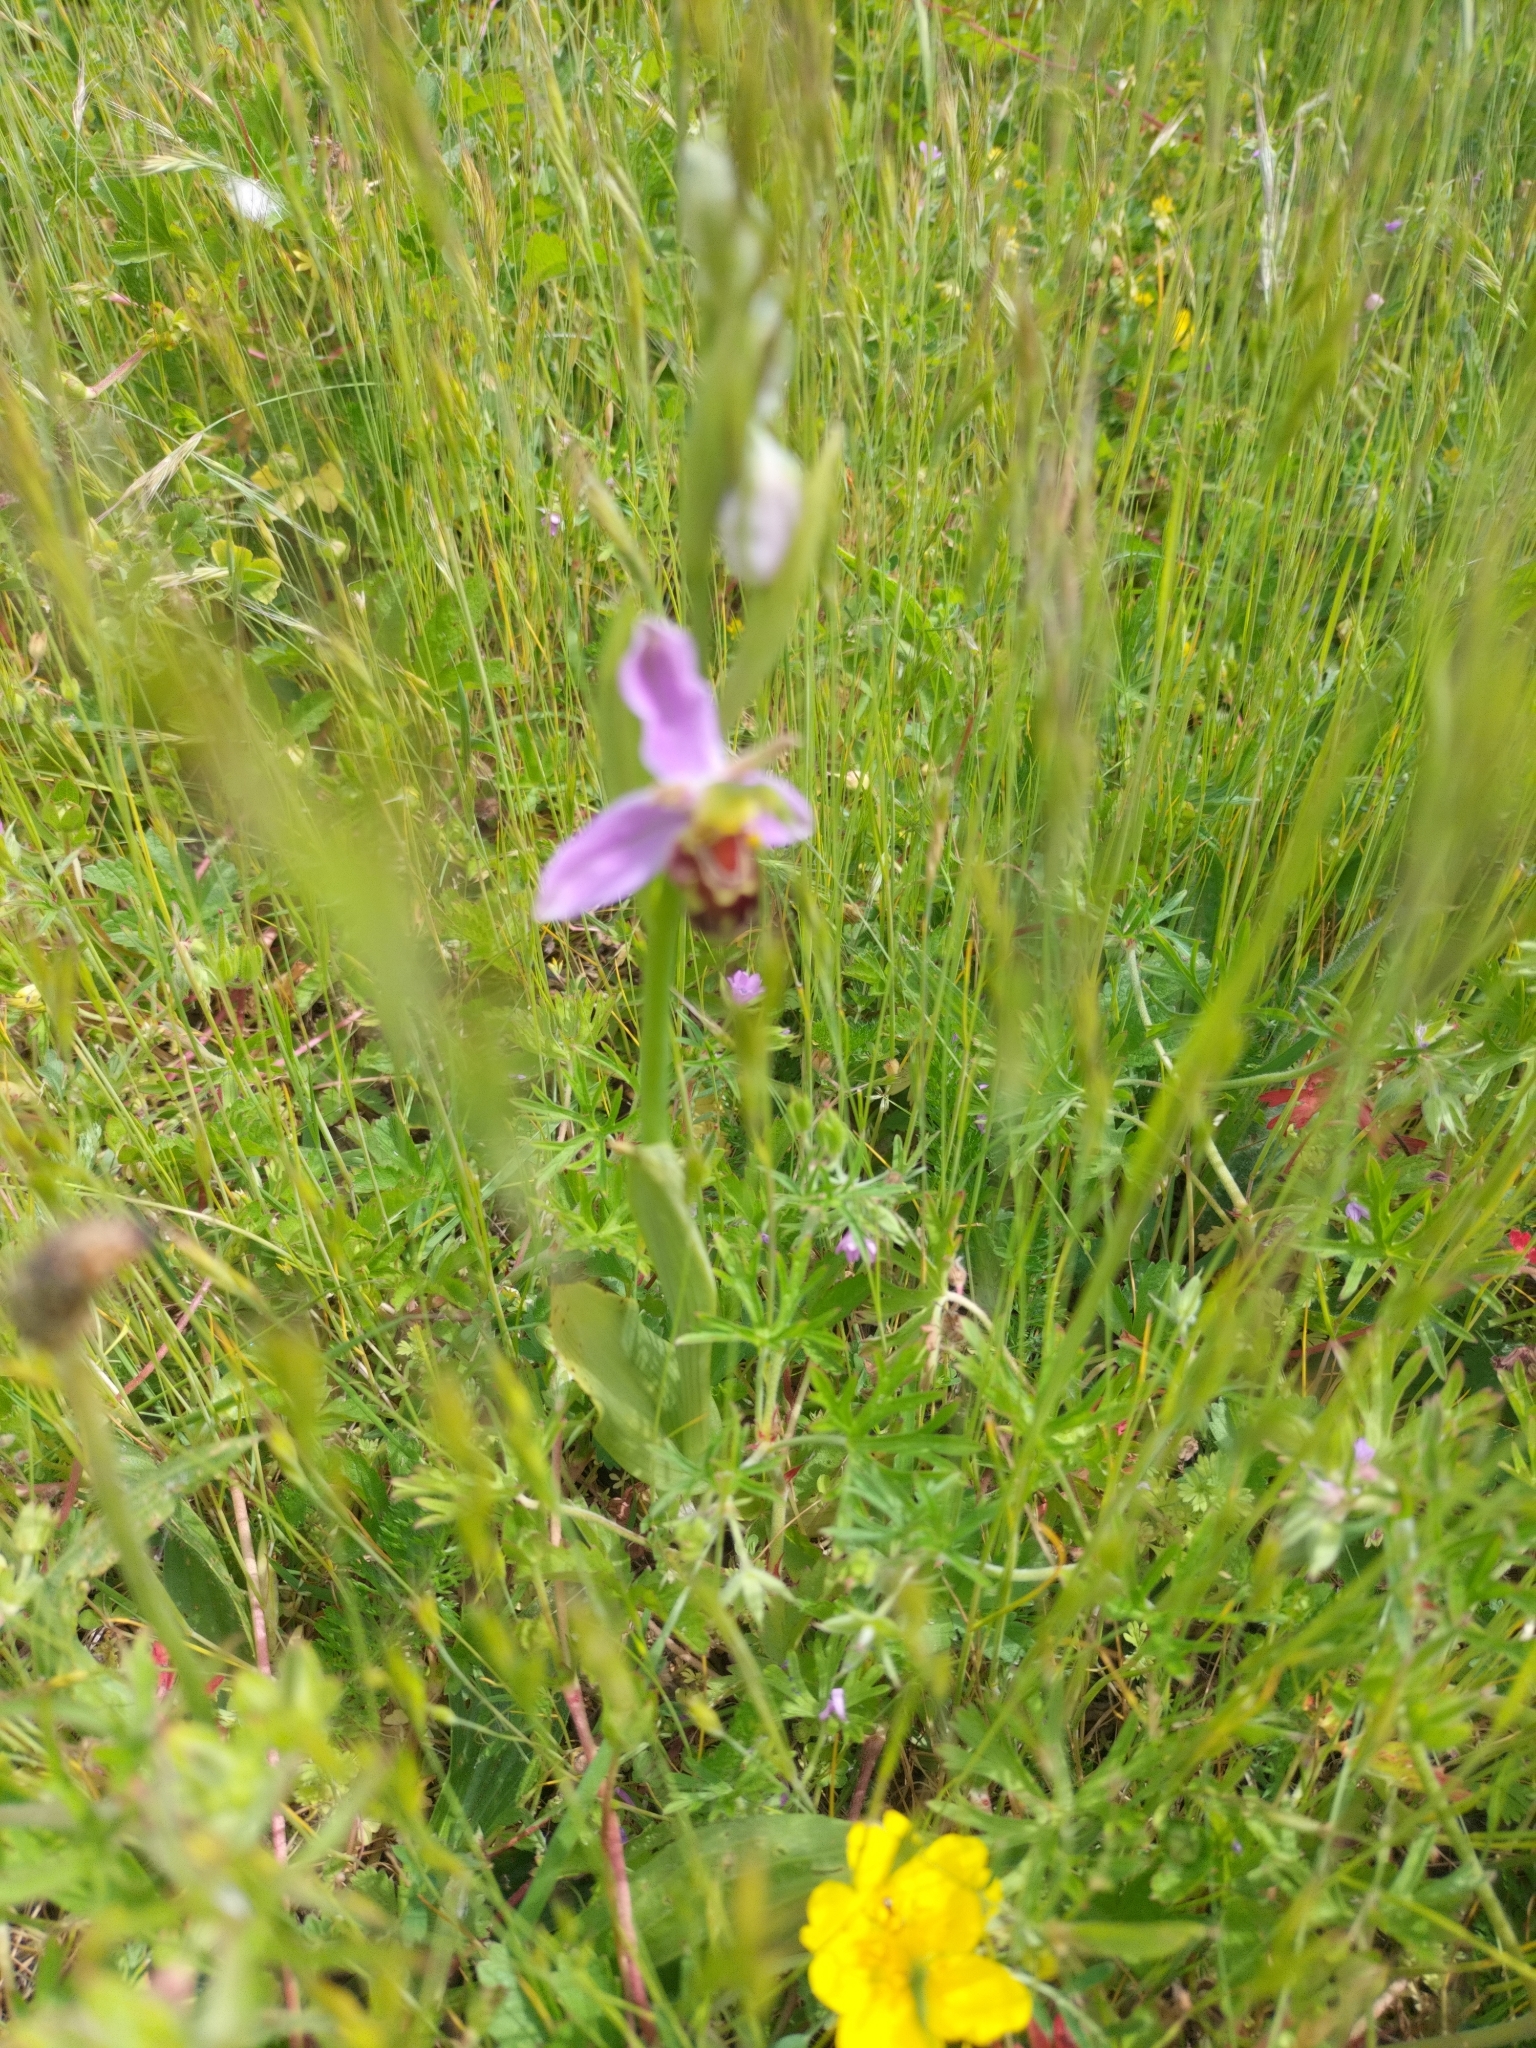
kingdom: Plantae
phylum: Tracheophyta
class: Liliopsida
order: Asparagales
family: Orchidaceae
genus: Ophrys
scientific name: Ophrys apifera
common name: Bee orchid
